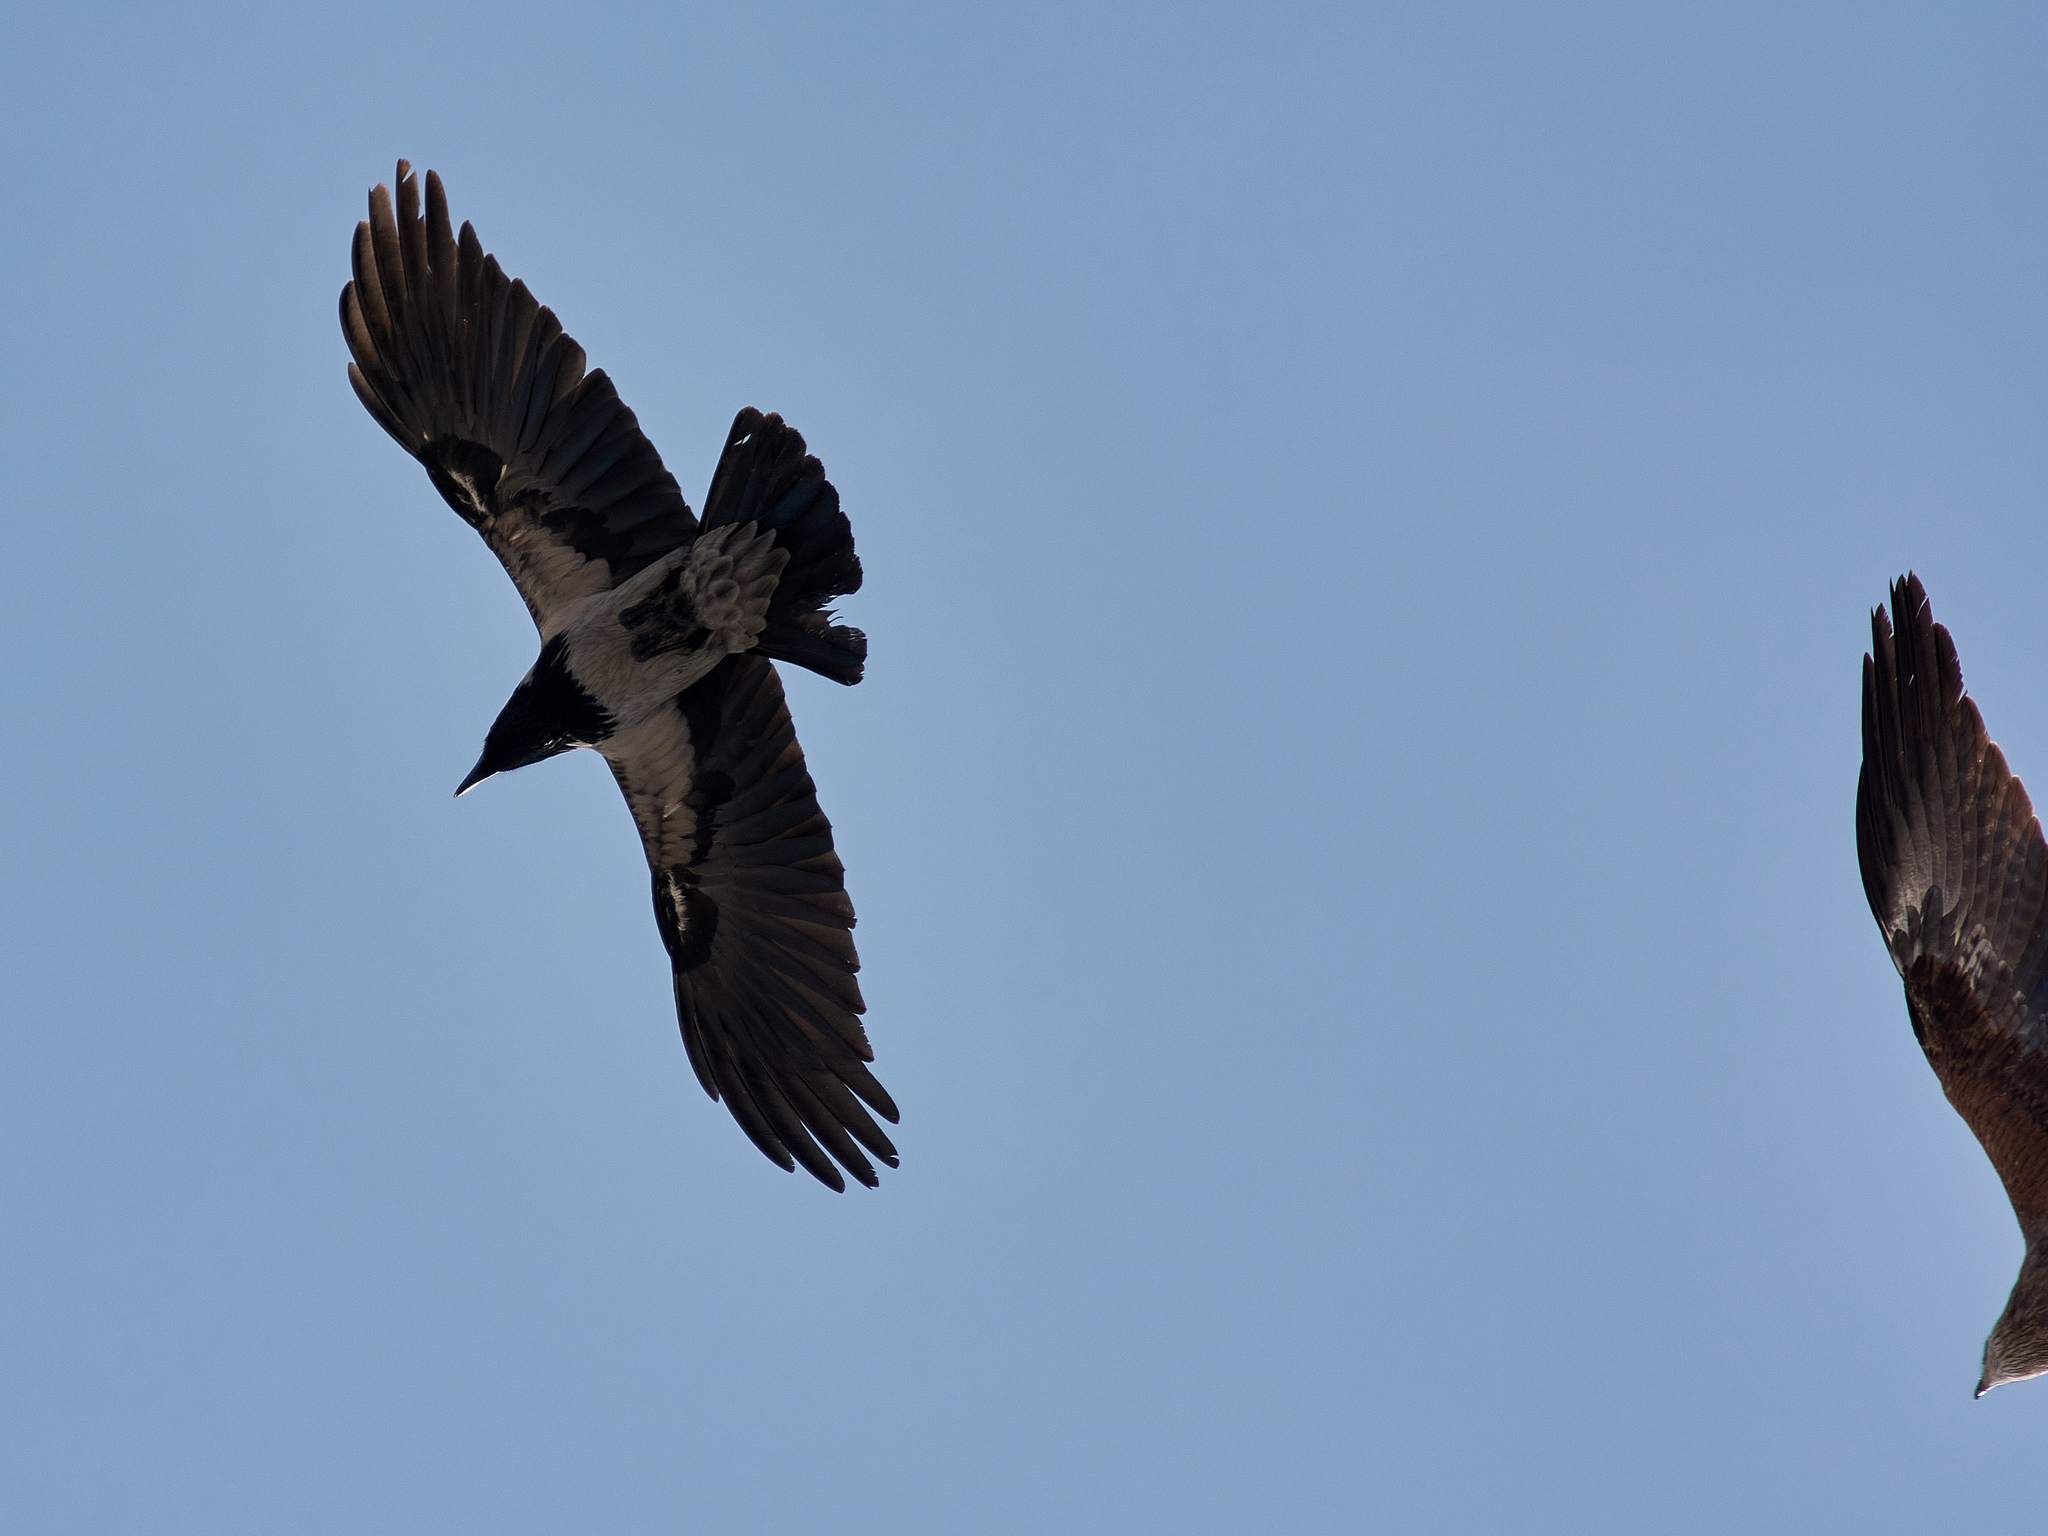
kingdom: Animalia
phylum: Chordata
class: Aves
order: Passeriformes
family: Corvidae
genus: Corvus
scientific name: Corvus cornix
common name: Hooded crow
